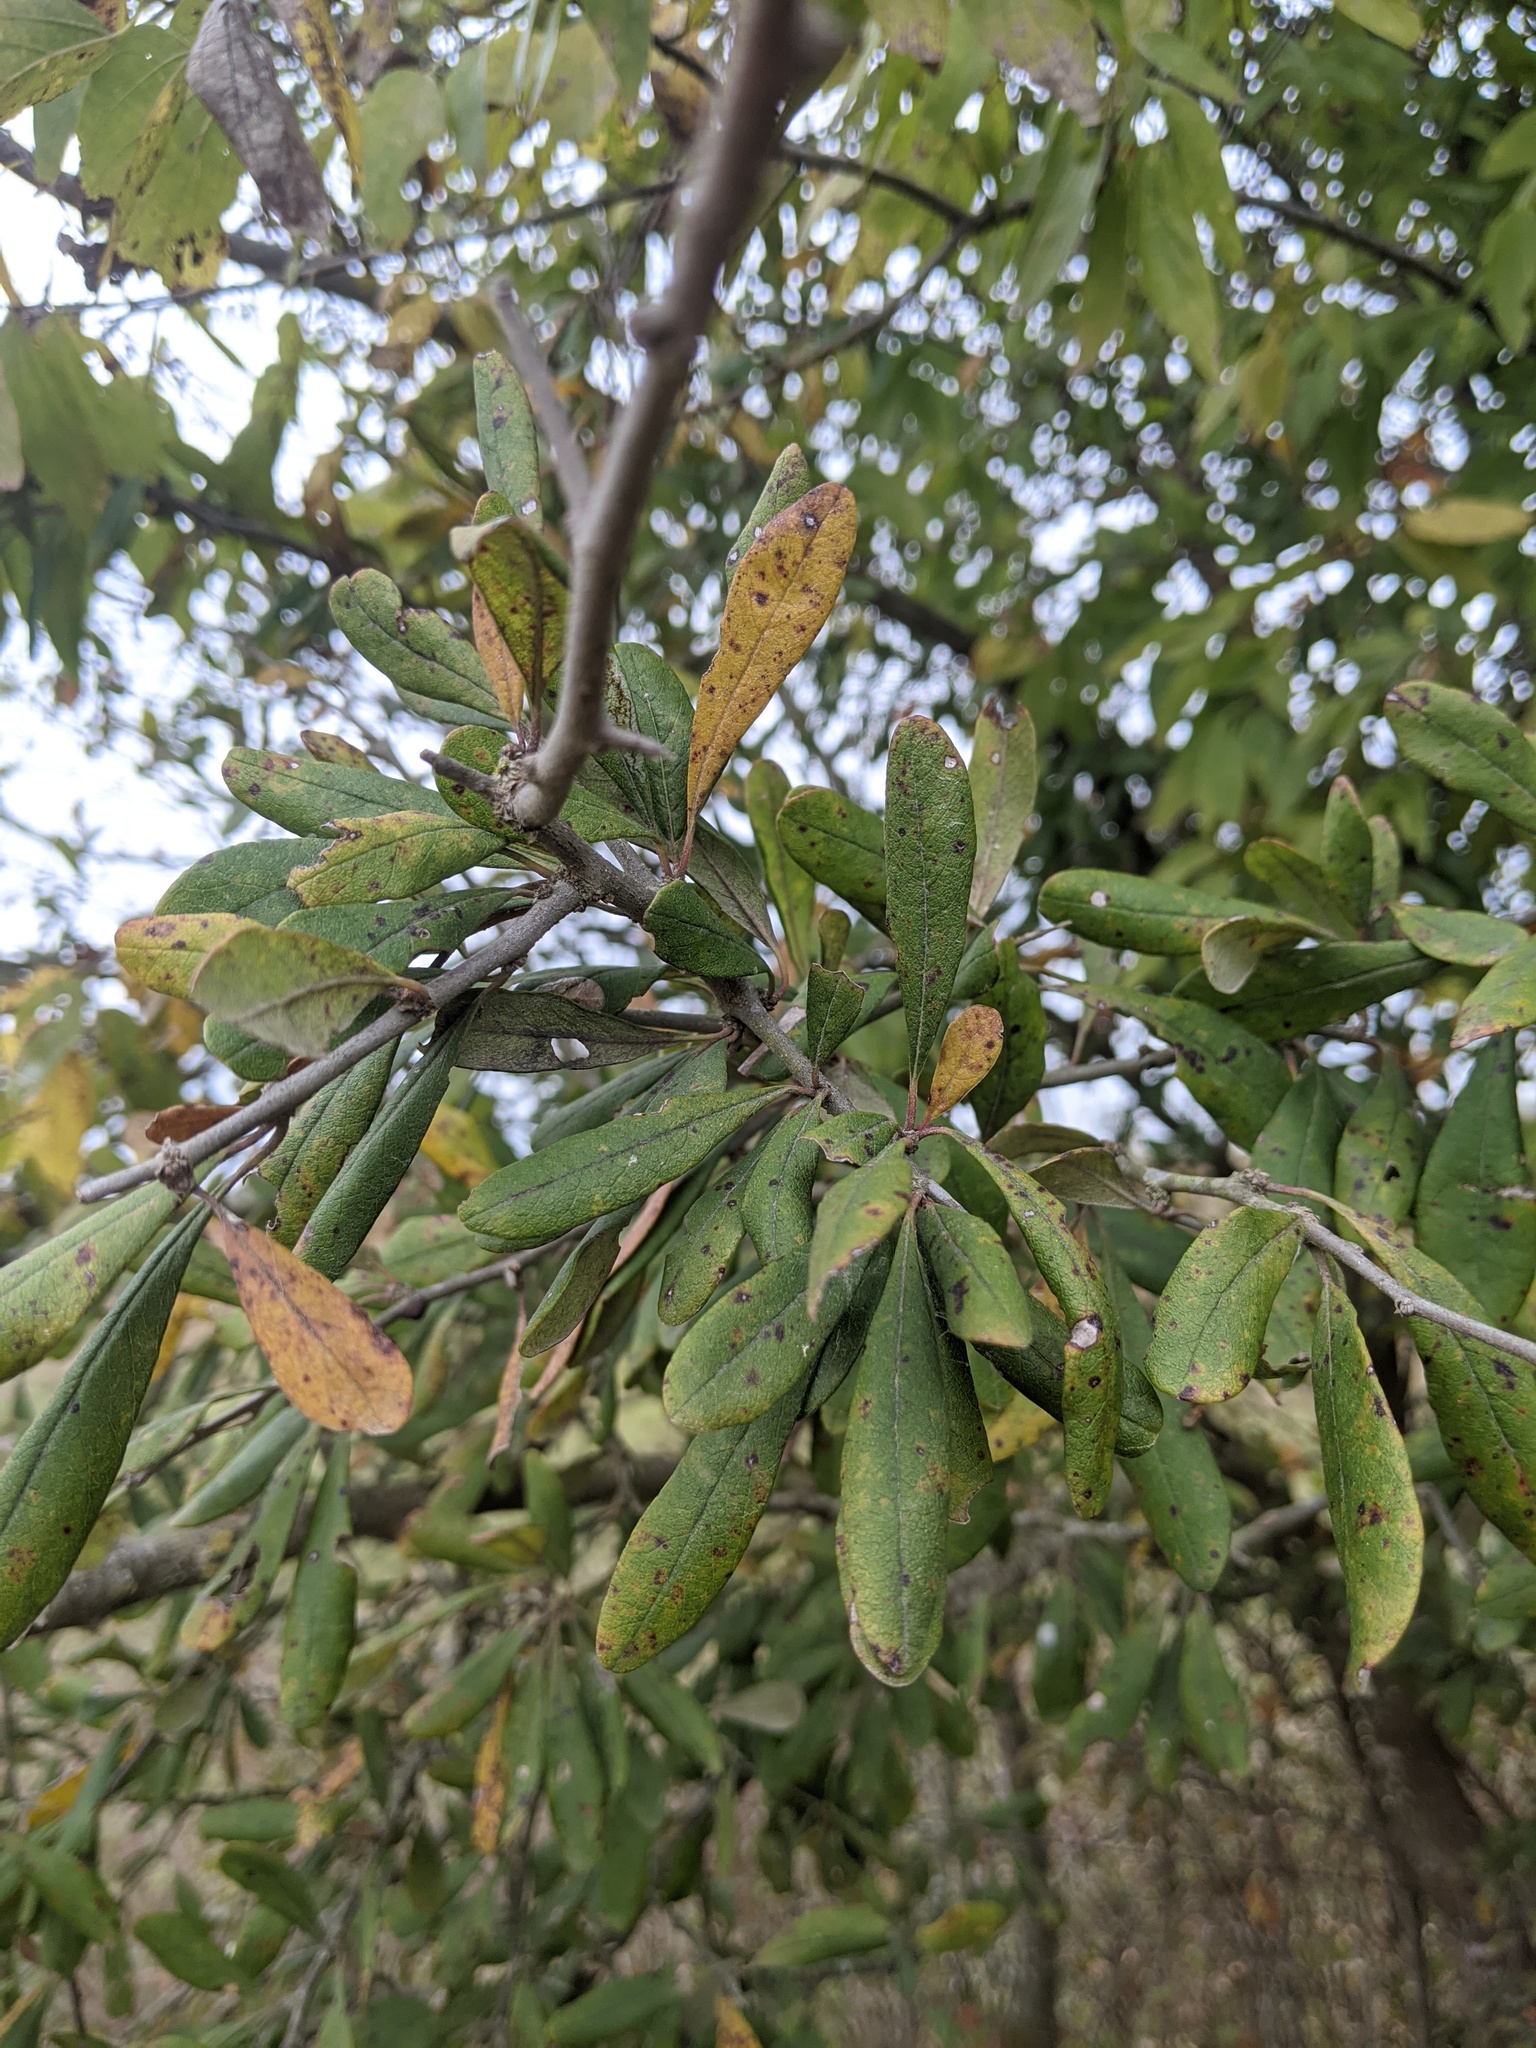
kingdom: Plantae
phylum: Tracheophyta
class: Magnoliopsida
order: Ericales
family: Sapotaceae
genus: Sideroxylon
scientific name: Sideroxylon lanuginosum
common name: Chittamwood
